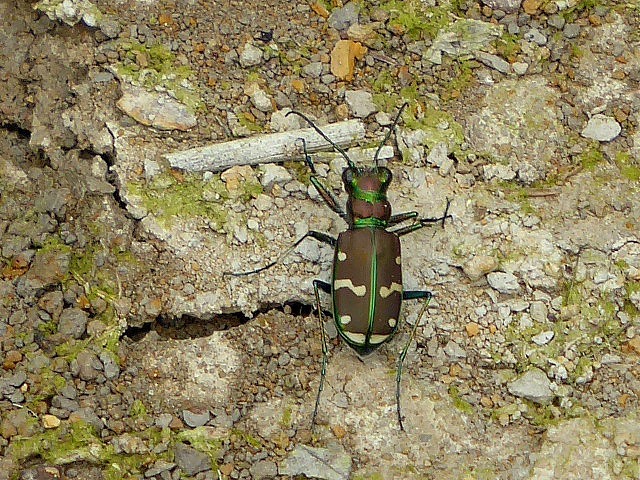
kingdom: Animalia
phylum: Arthropoda
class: Insecta
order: Coleoptera
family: Carabidae
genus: Cicindela
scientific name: Cicindela limbalis
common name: Common claybank tiger beetle
